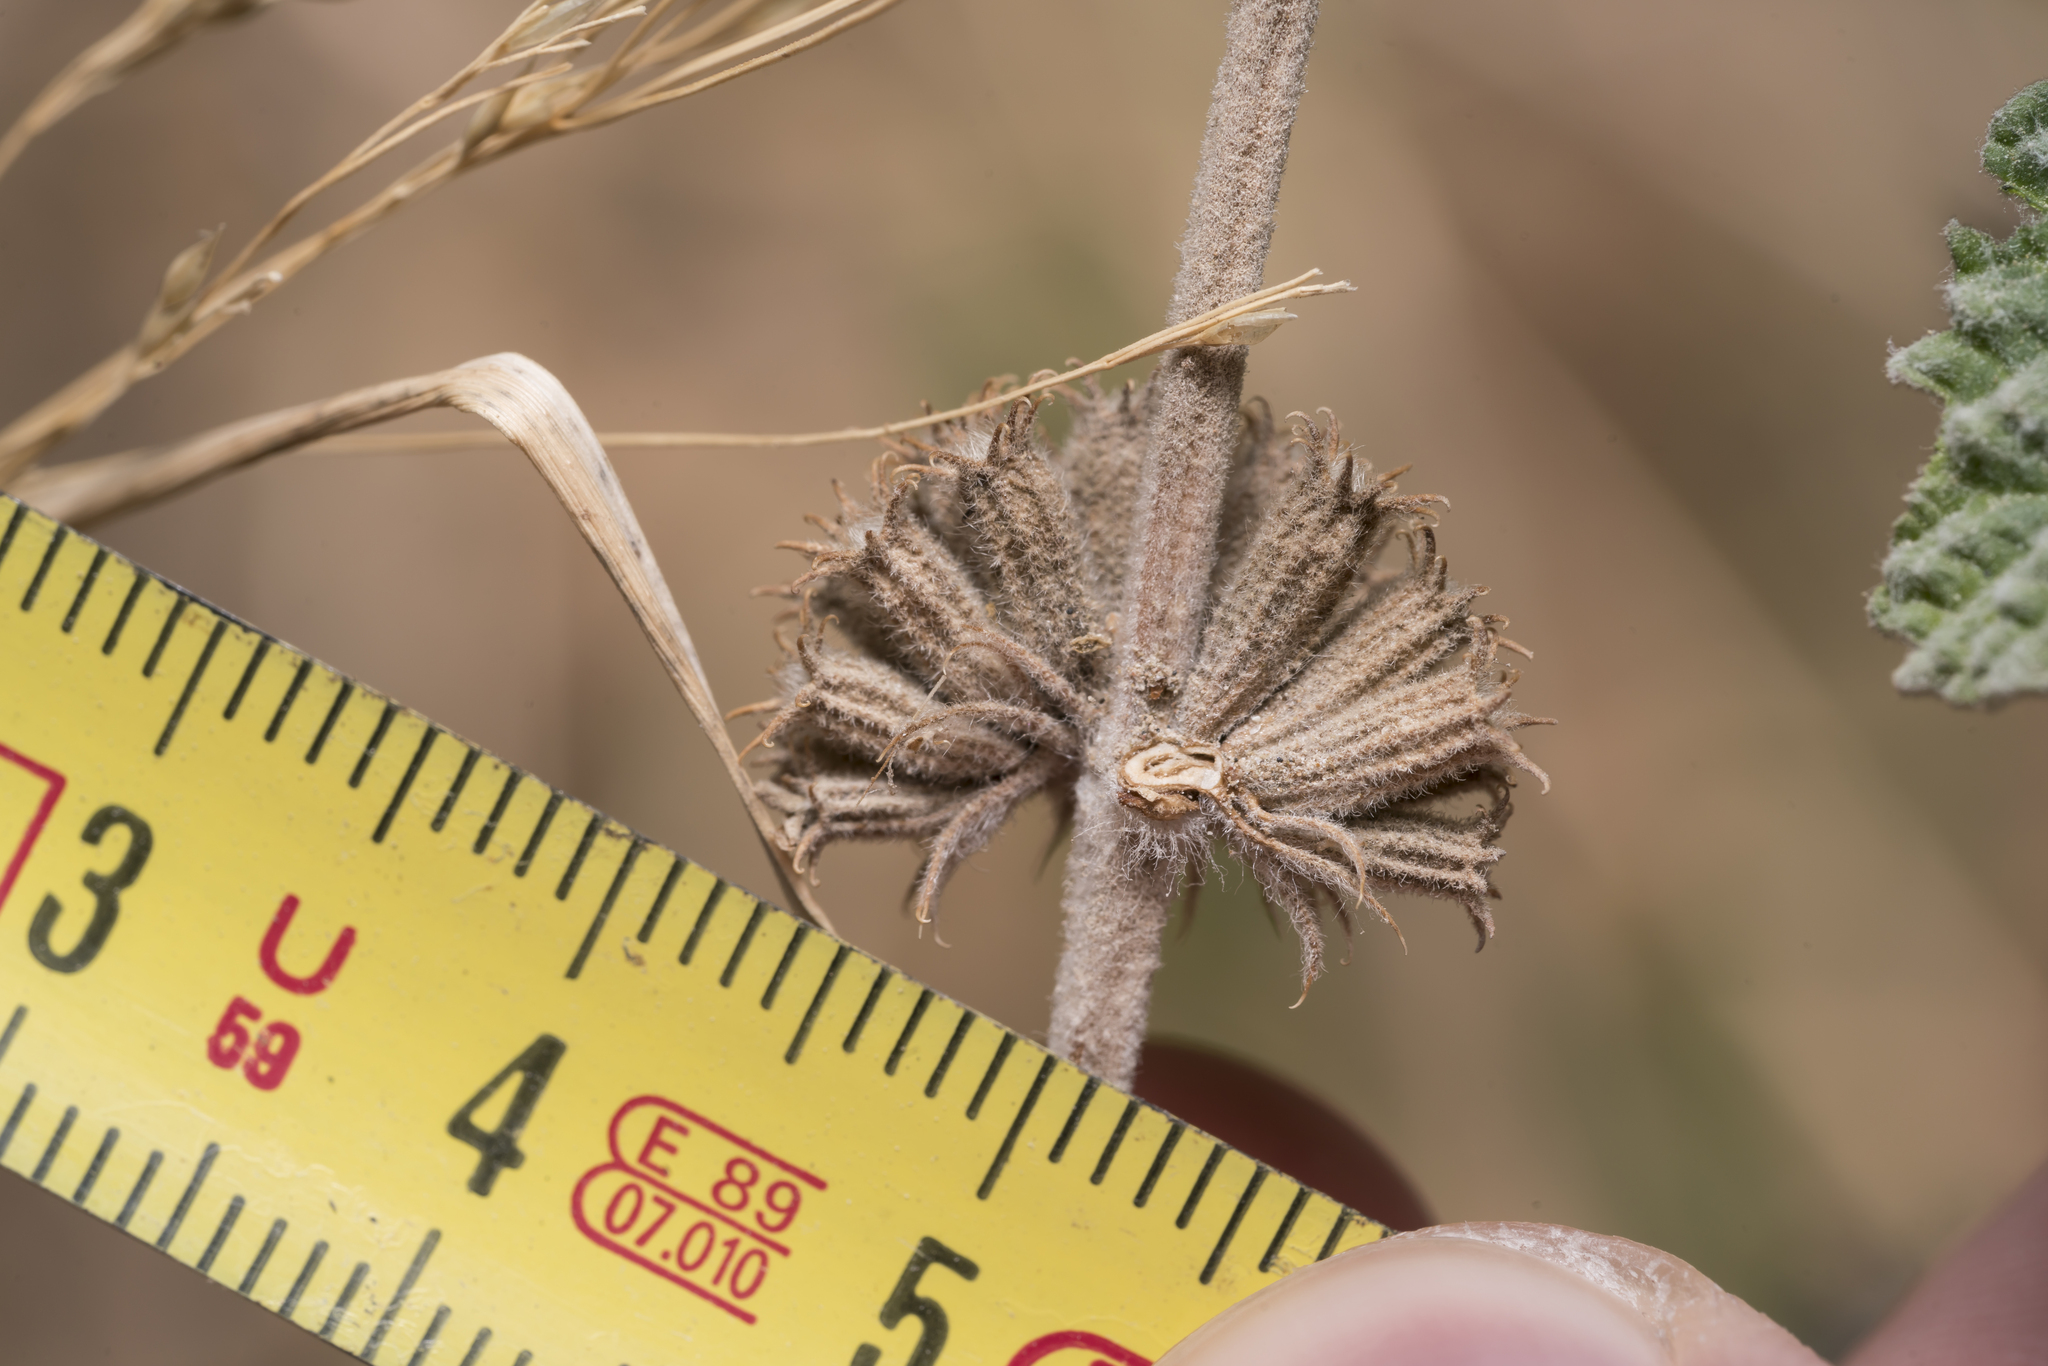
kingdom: Plantae
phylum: Tracheophyta
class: Magnoliopsida
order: Lamiales
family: Lamiaceae
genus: Marrubium
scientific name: Marrubium vulgare
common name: Horehound
